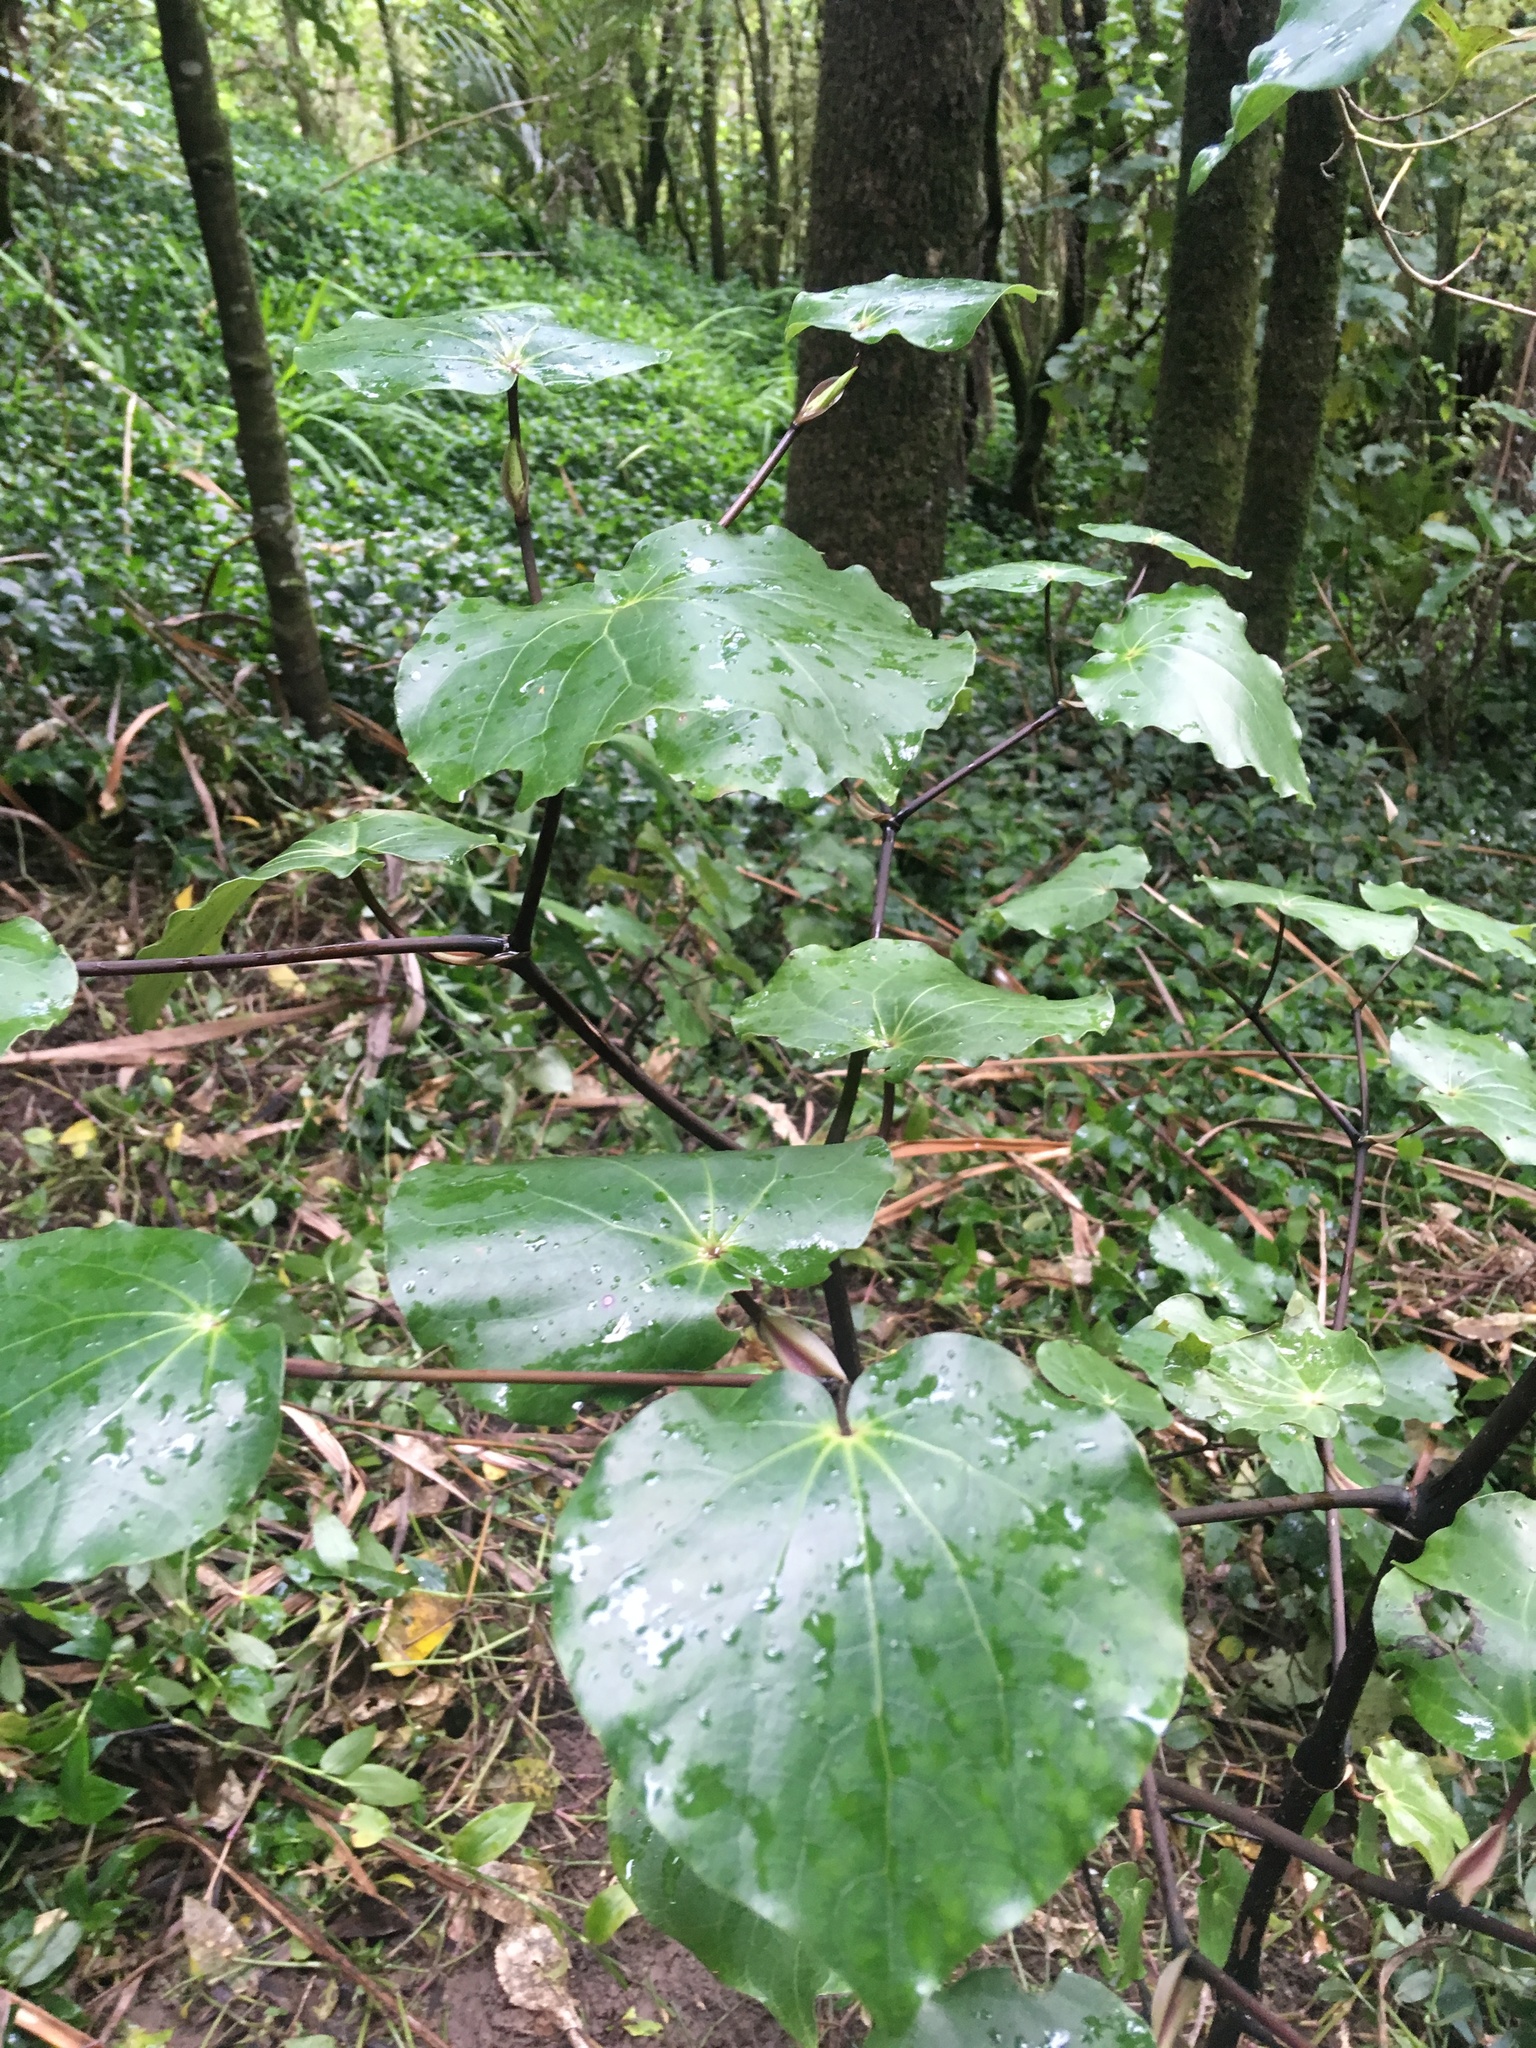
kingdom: Plantae
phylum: Tracheophyta
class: Magnoliopsida
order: Piperales
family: Piperaceae
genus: Macropiper
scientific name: Macropiper excelsum
